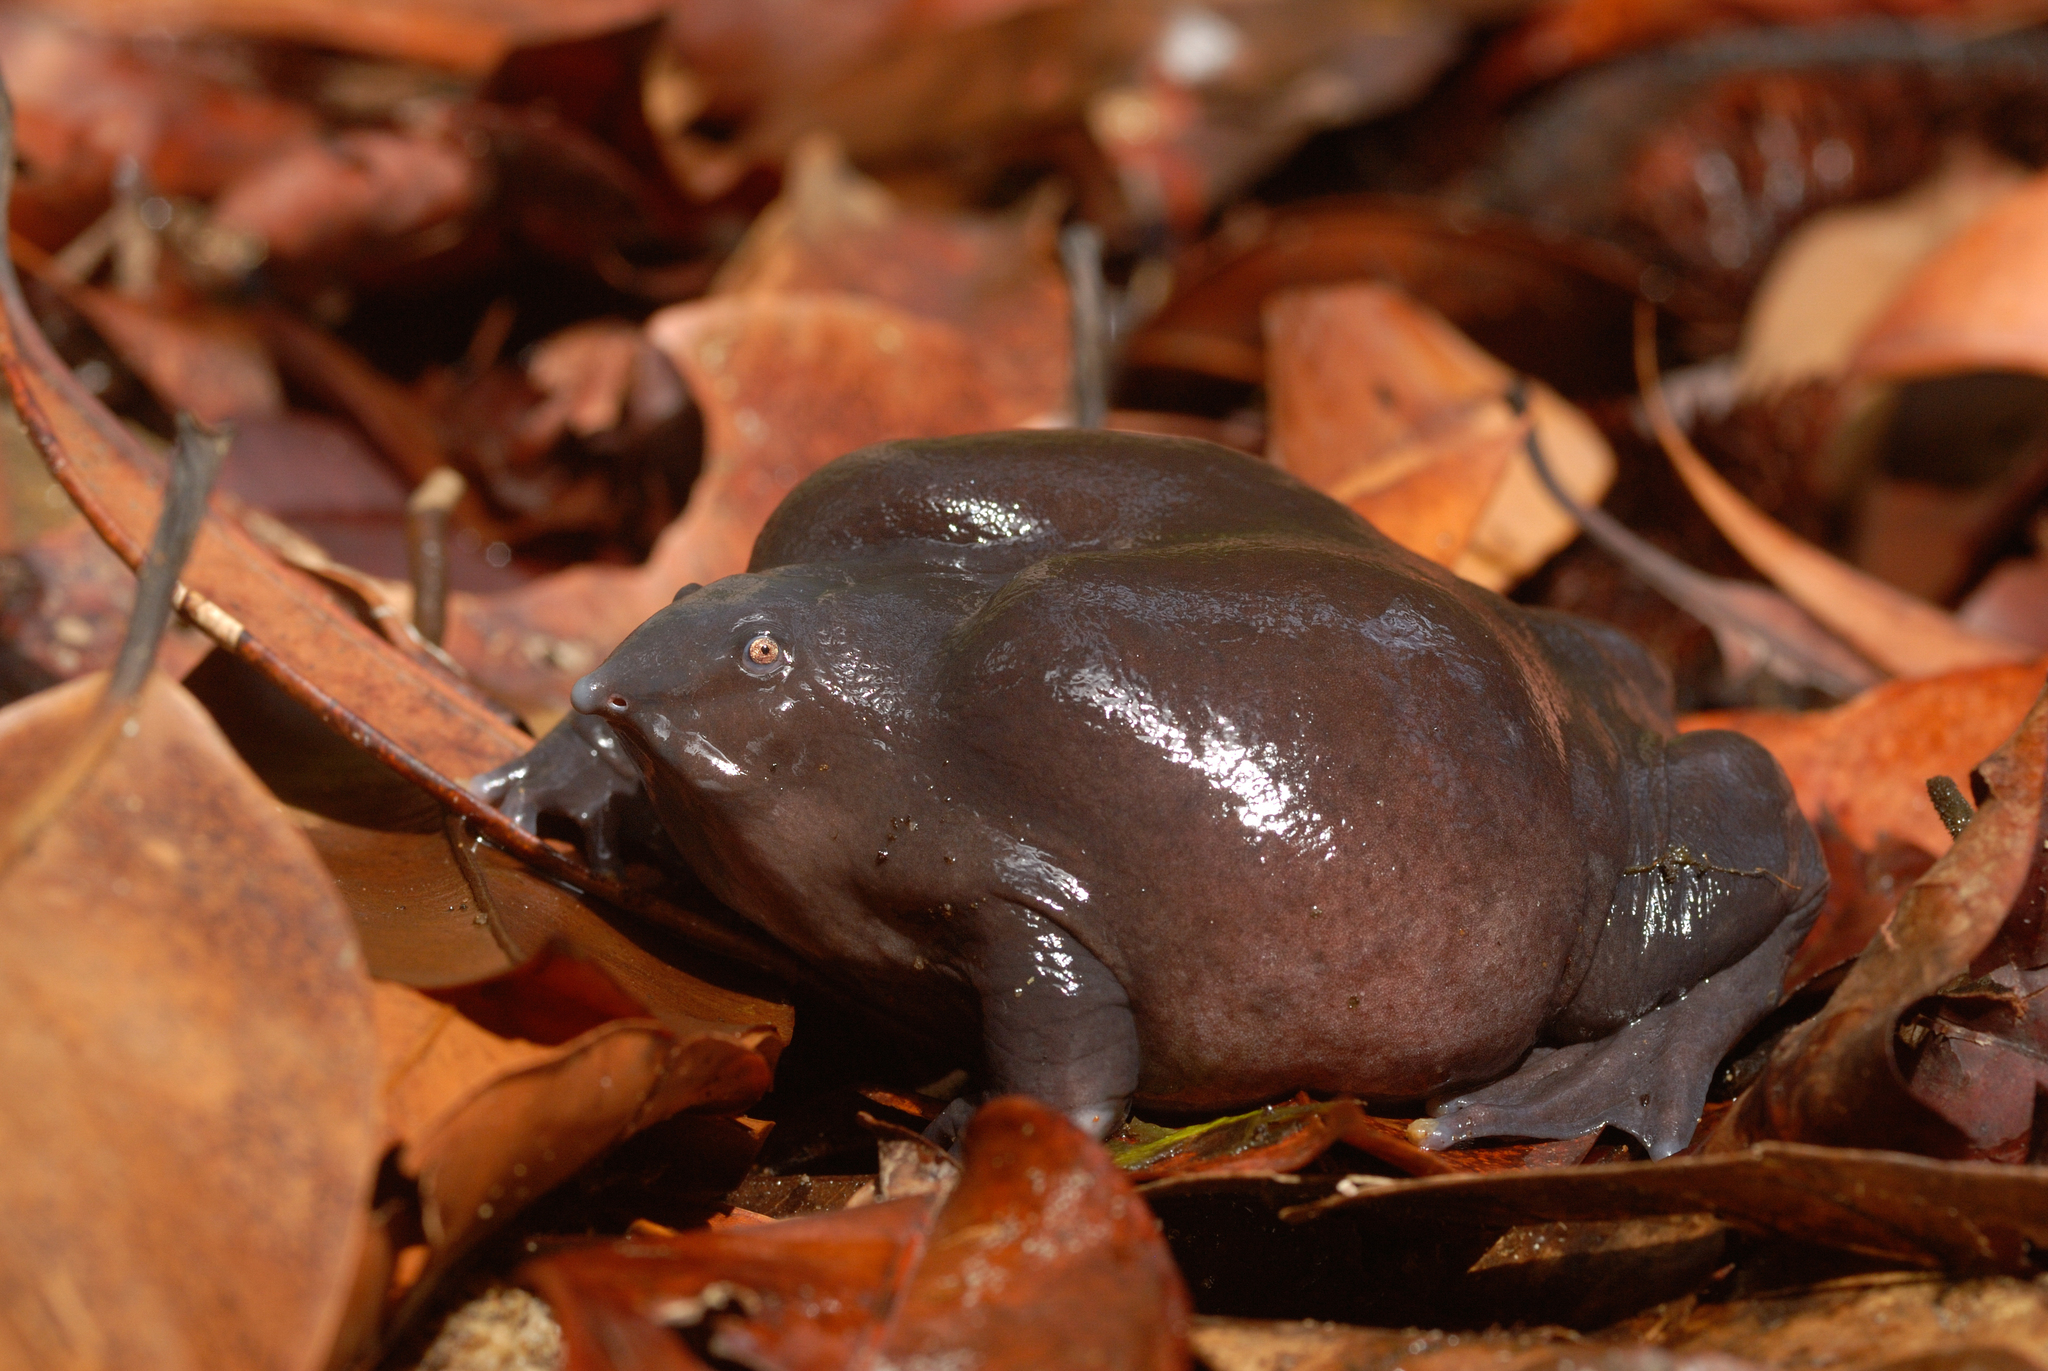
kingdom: Animalia
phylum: Chordata
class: Amphibia
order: Anura
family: Nasikabatrachidae
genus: Nasikabatrachus
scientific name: Nasikabatrachus sahyadrensis
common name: Purple frog
